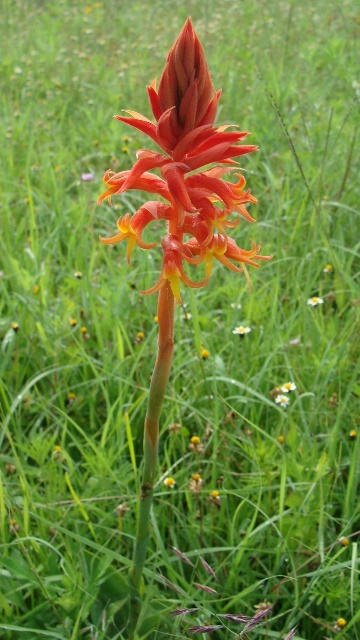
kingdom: Plantae
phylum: Tracheophyta
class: Liliopsida
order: Asparagales
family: Orchidaceae
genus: Dichromanthus
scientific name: Dichromanthus cinnabarinus
